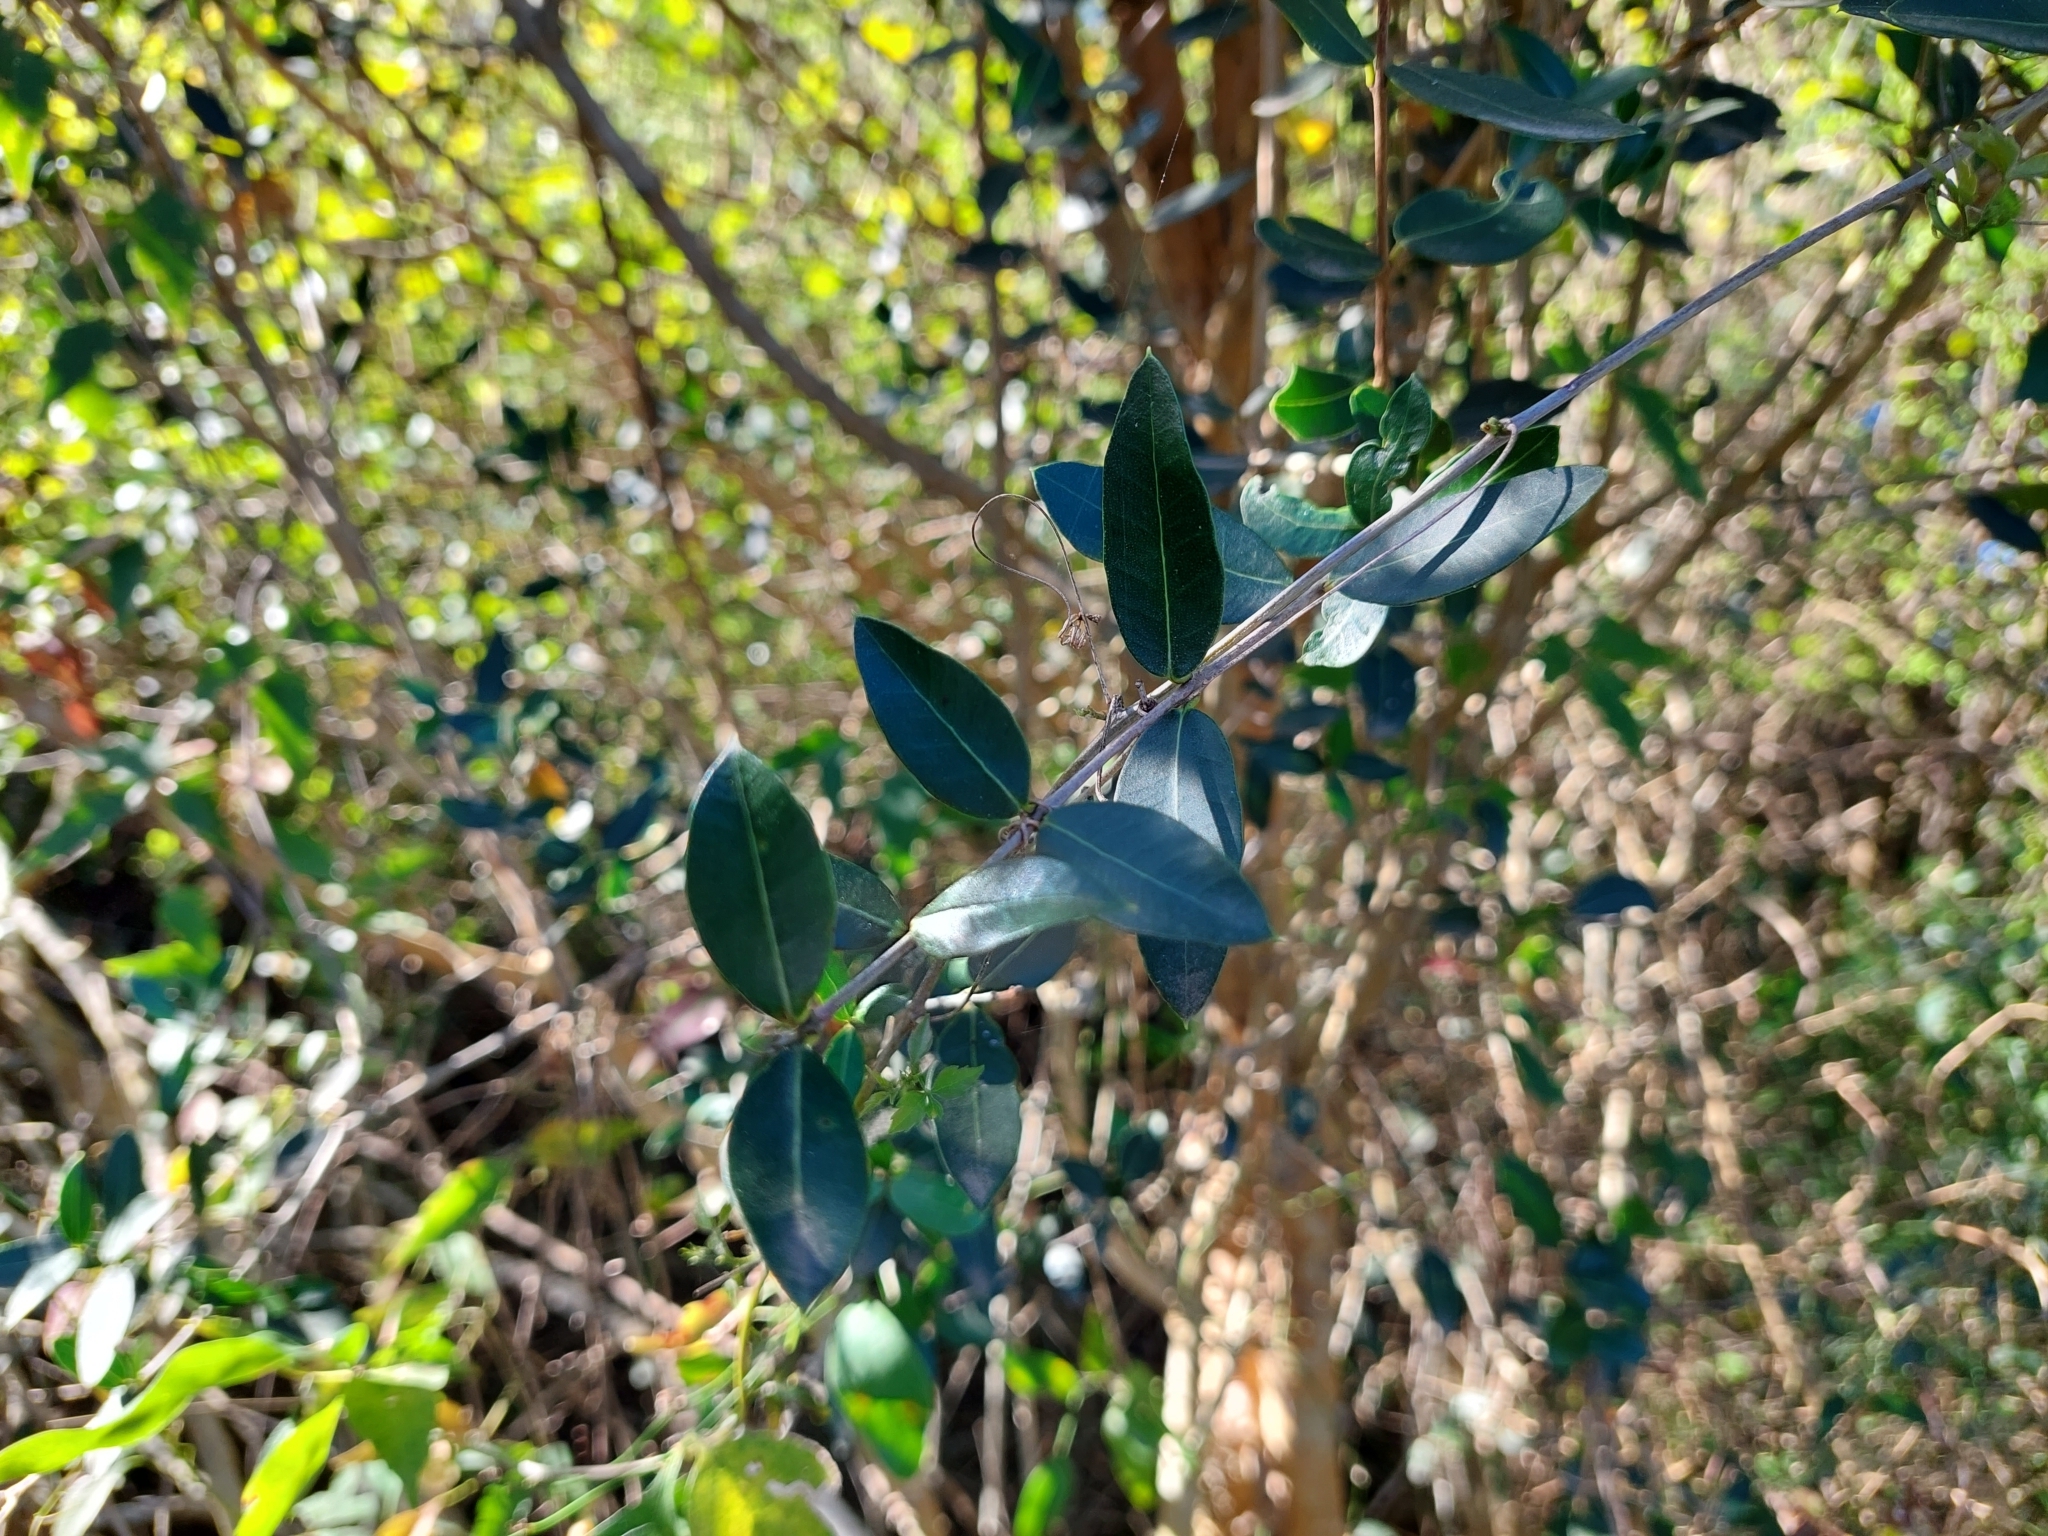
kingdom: Plantae
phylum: Tracheophyta
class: Magnoliopsida
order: Myrtales
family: Myrtaceae
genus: Myrcianthes
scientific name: Myrcianthes cisplatensis
